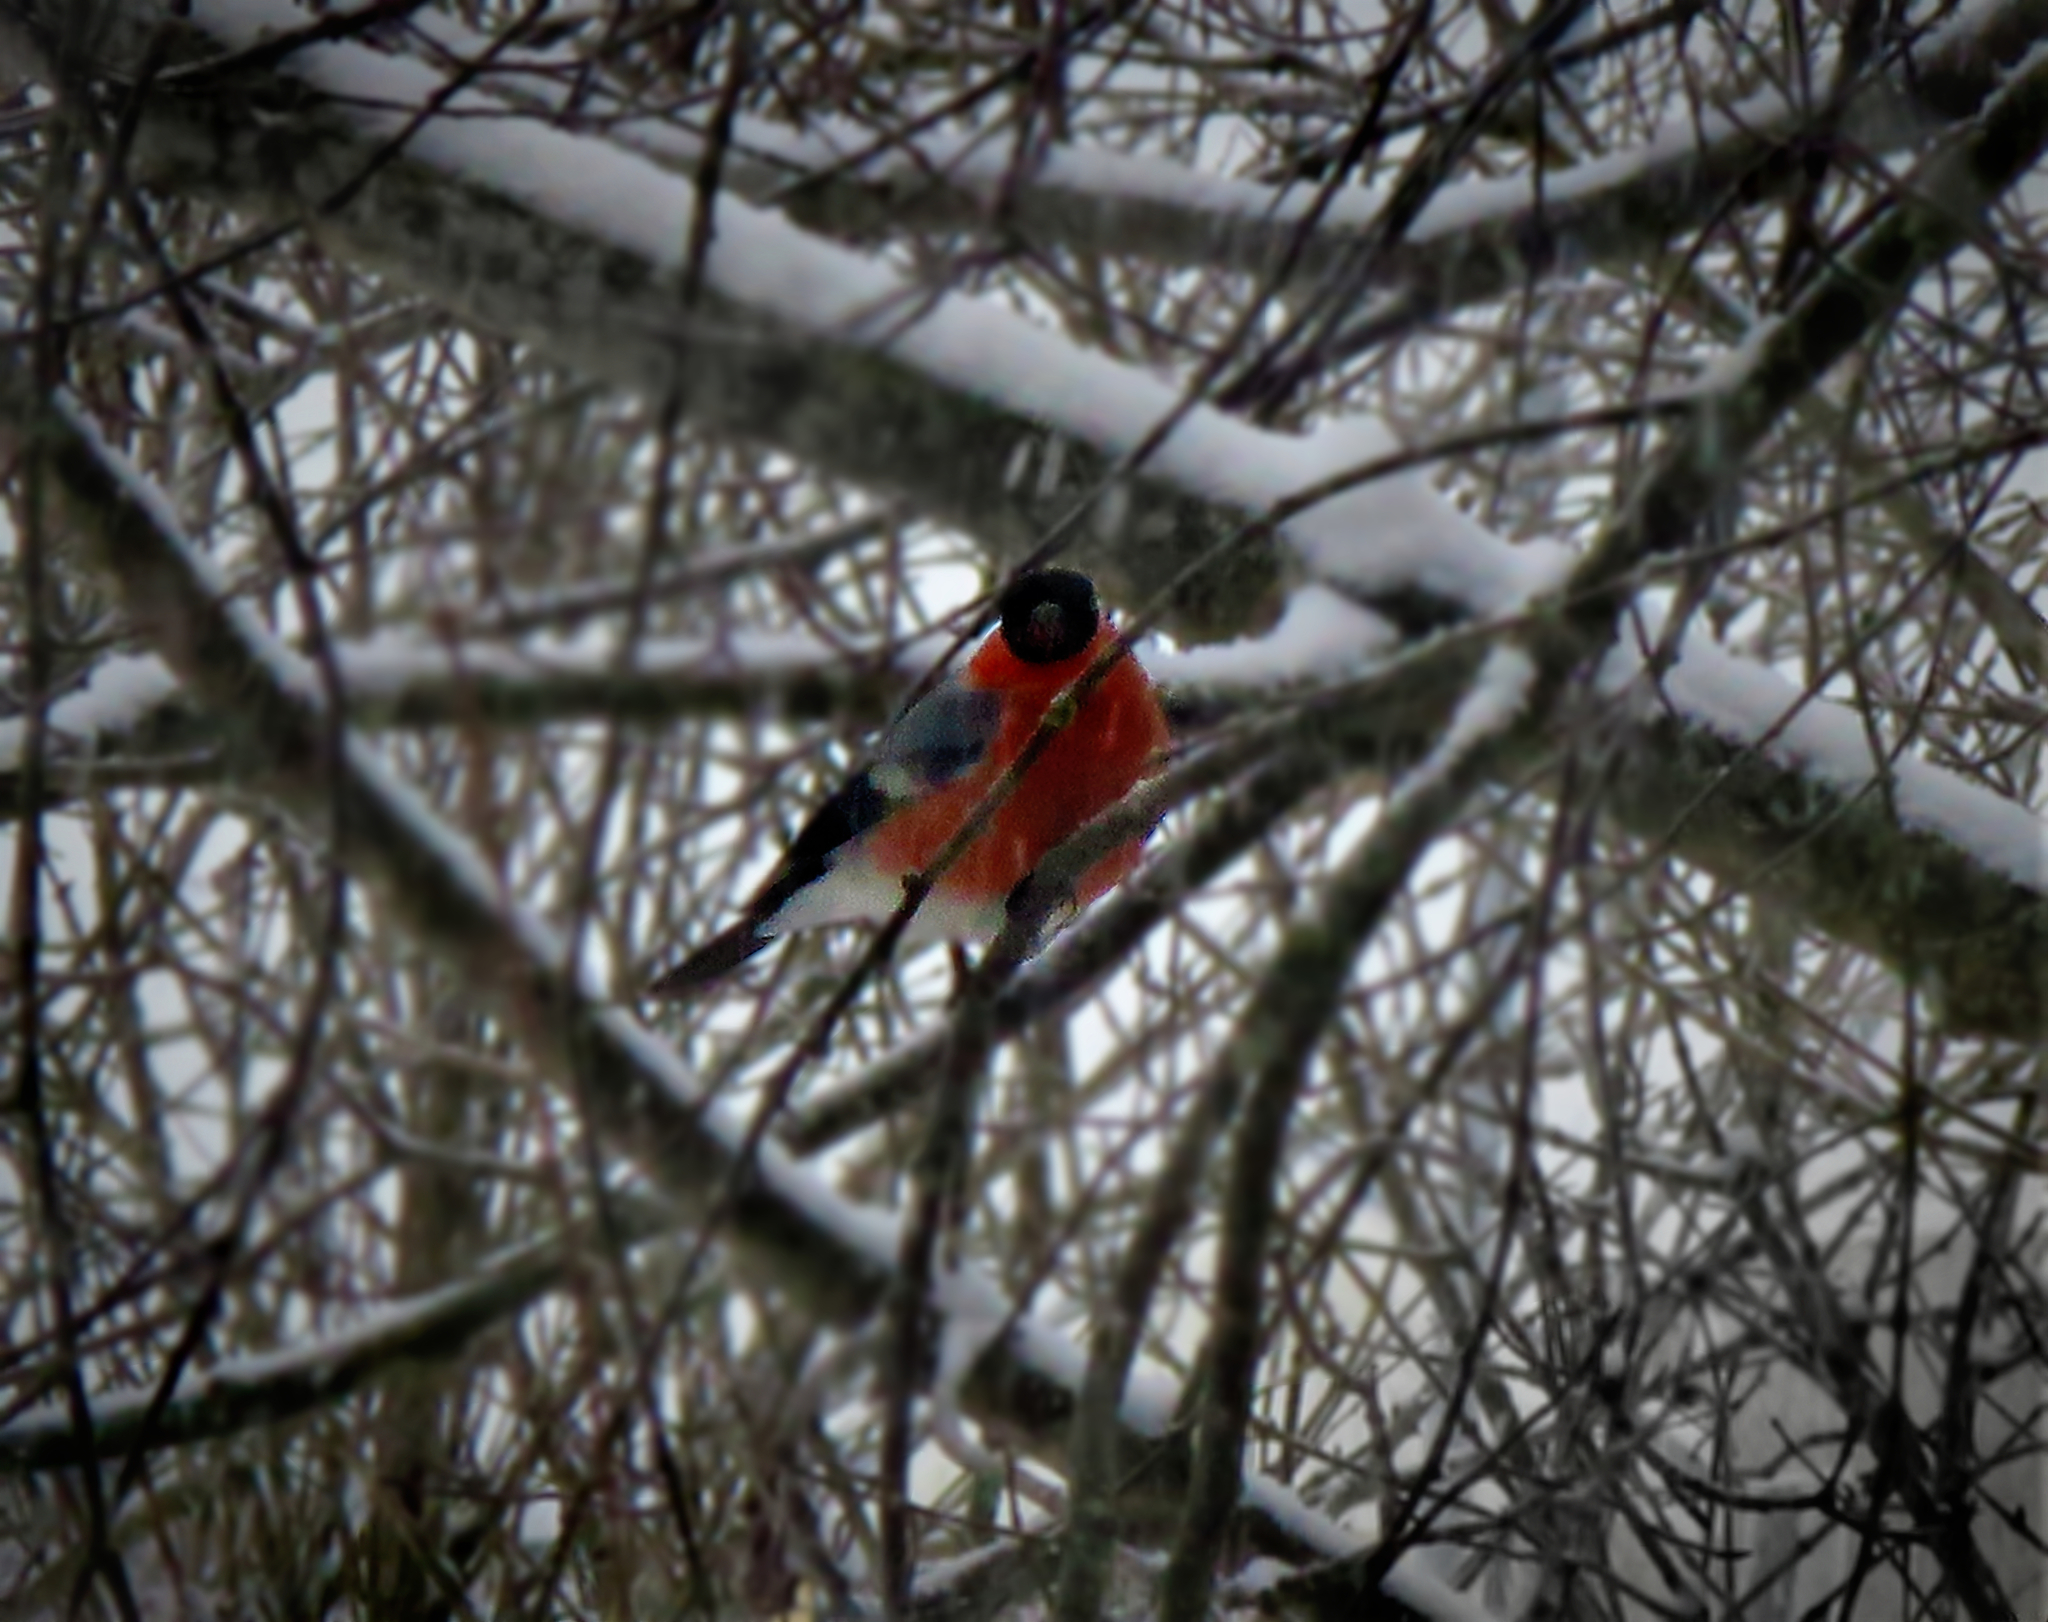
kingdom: Animalia
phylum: Chordata
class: Aves
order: Passeriformes
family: Fringillidae
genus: Pyrrhula
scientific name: Pyrrhula pyrrhula
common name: Eurasian bullfinch
